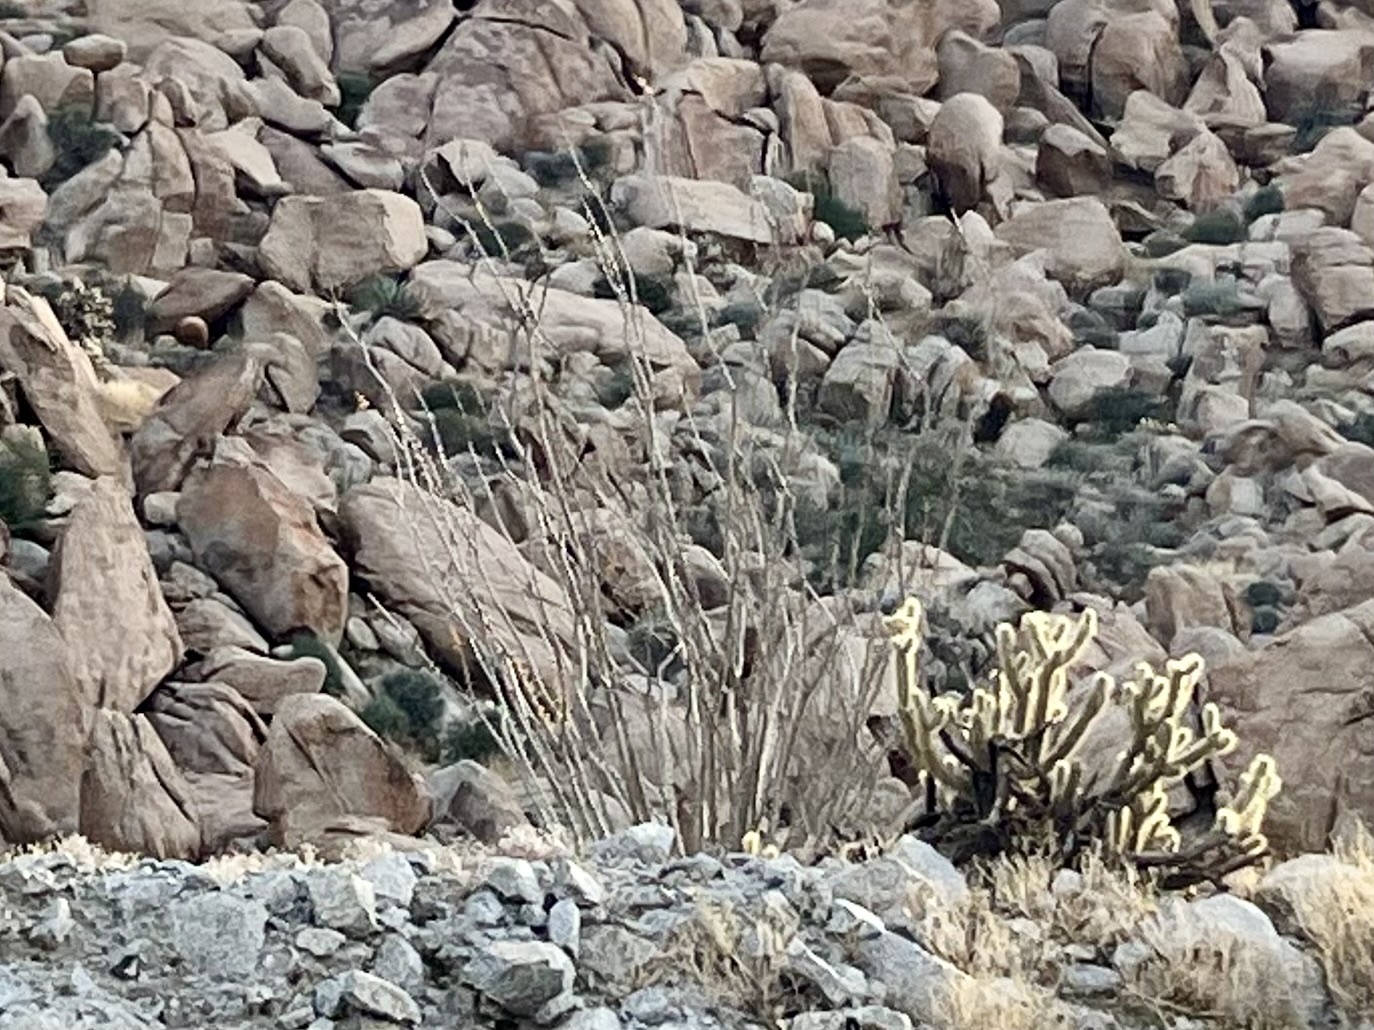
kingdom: Plantae
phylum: Tracheophyta
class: Magnoliopsida
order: Ericales
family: Fouquieriaceae
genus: Fouquieria
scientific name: Fouquieria splendens
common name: Vine-cactus
